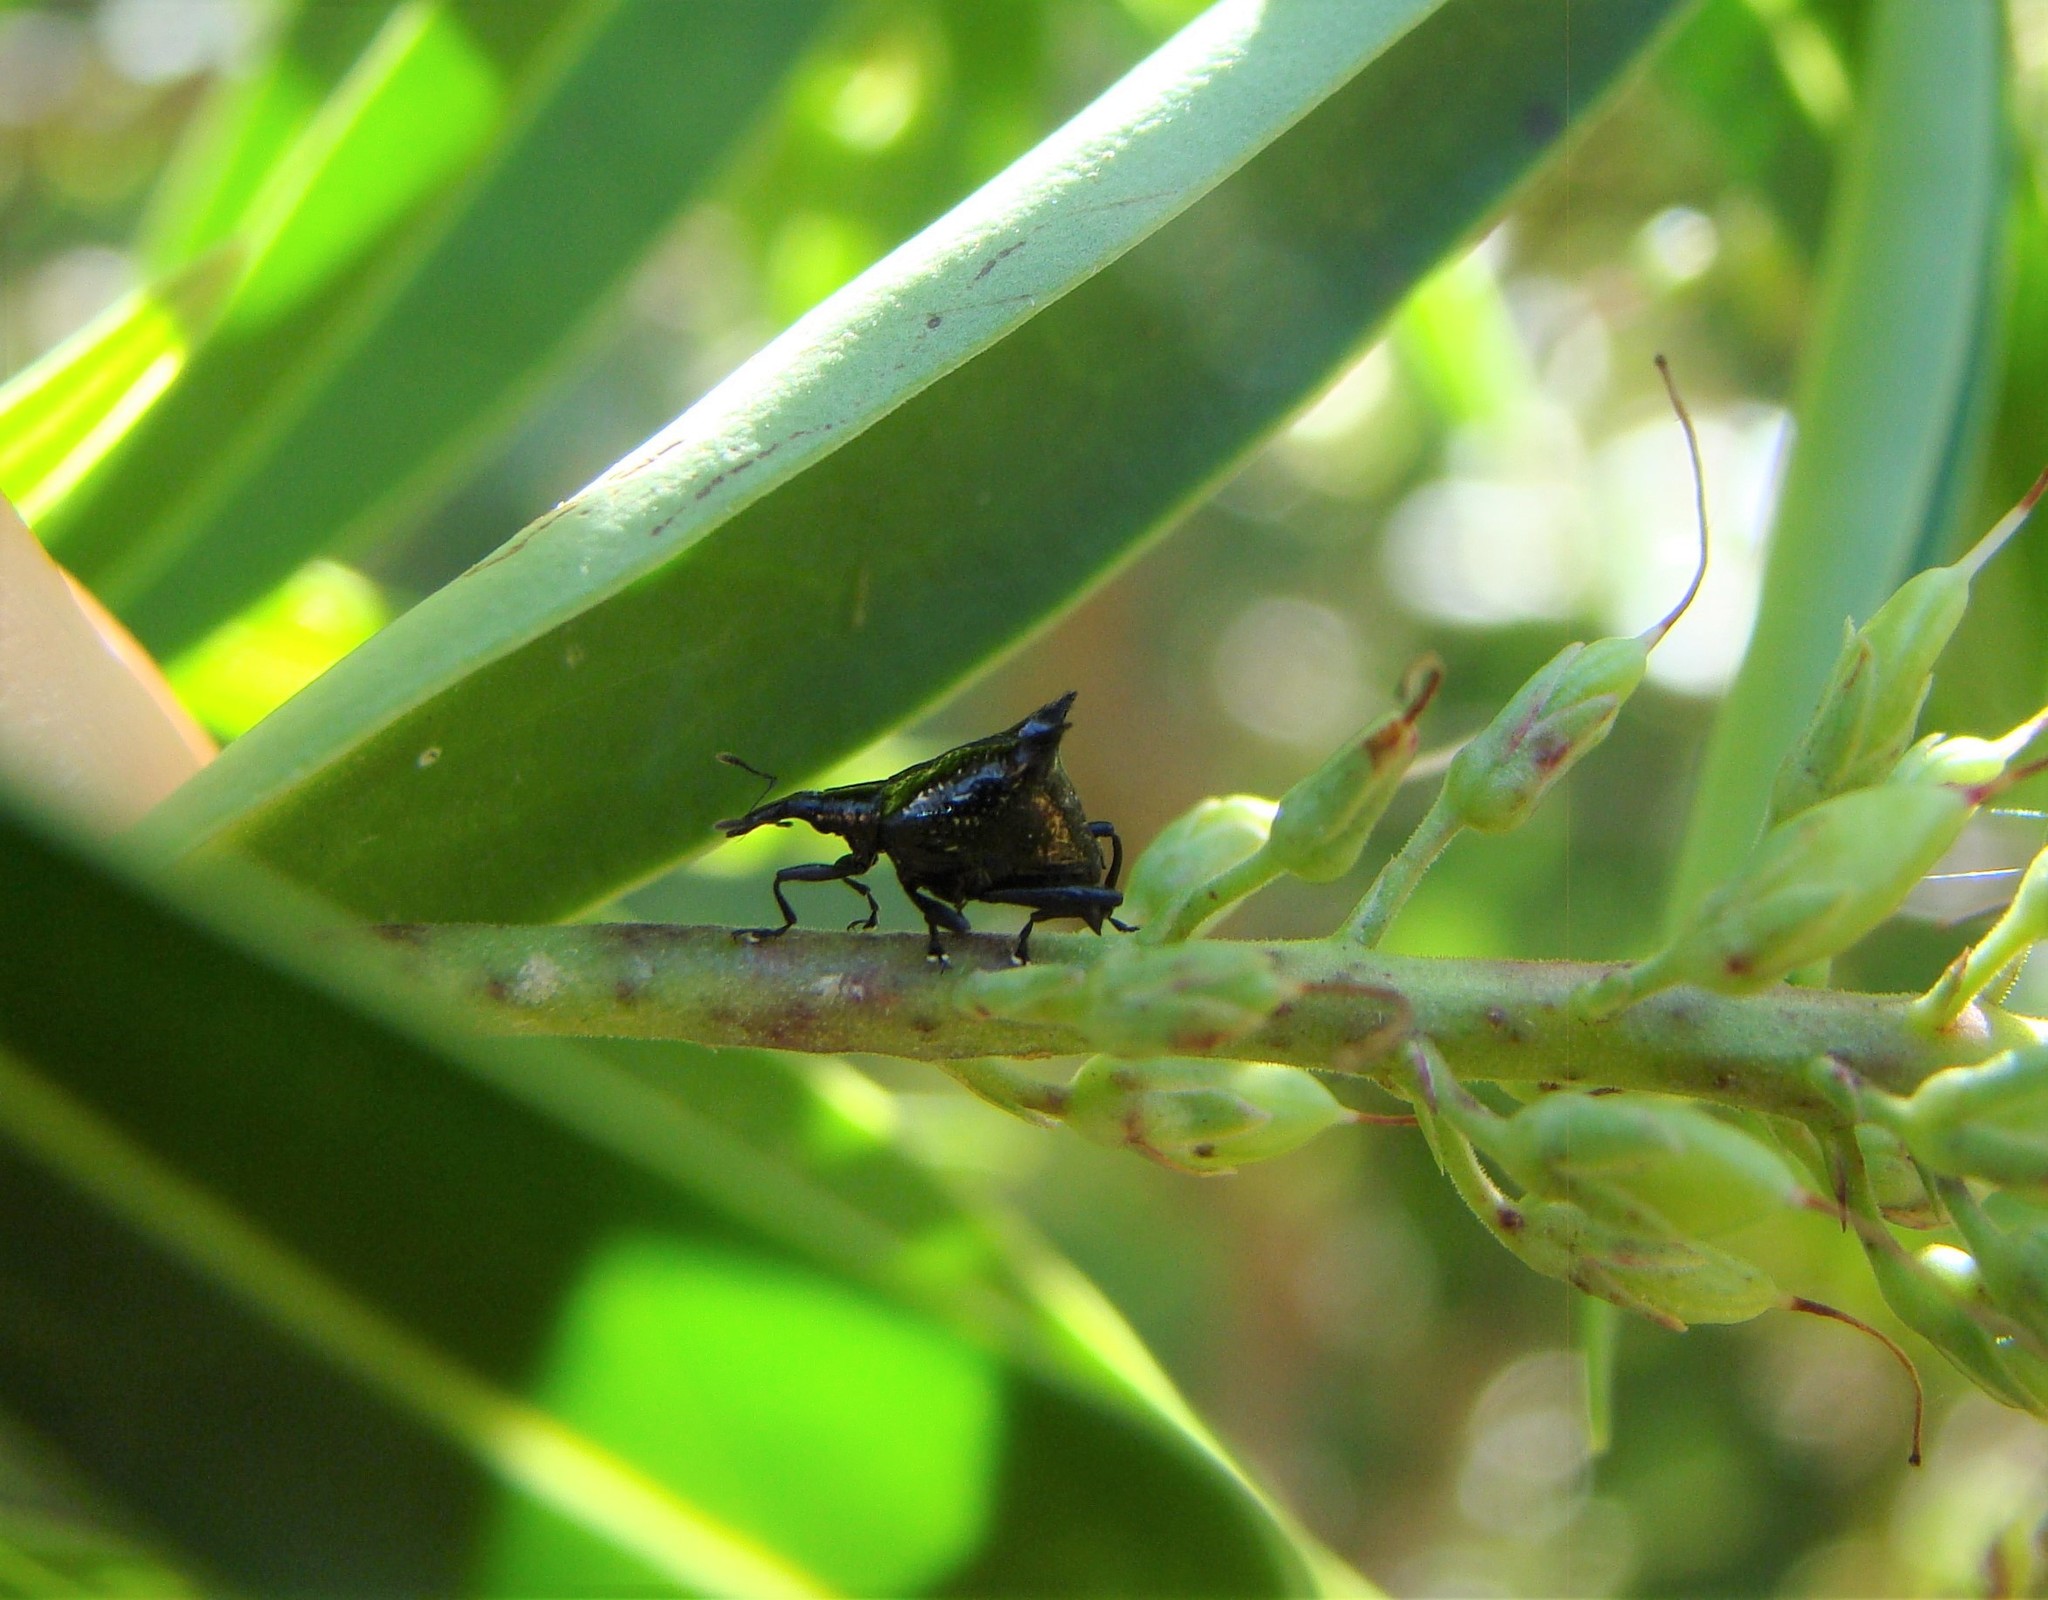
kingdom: Animalia
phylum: Arthropoda
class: Insecta
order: Coleoptera
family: Curculionidae
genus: Scolopterus
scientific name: Scolopterus penicillatus
